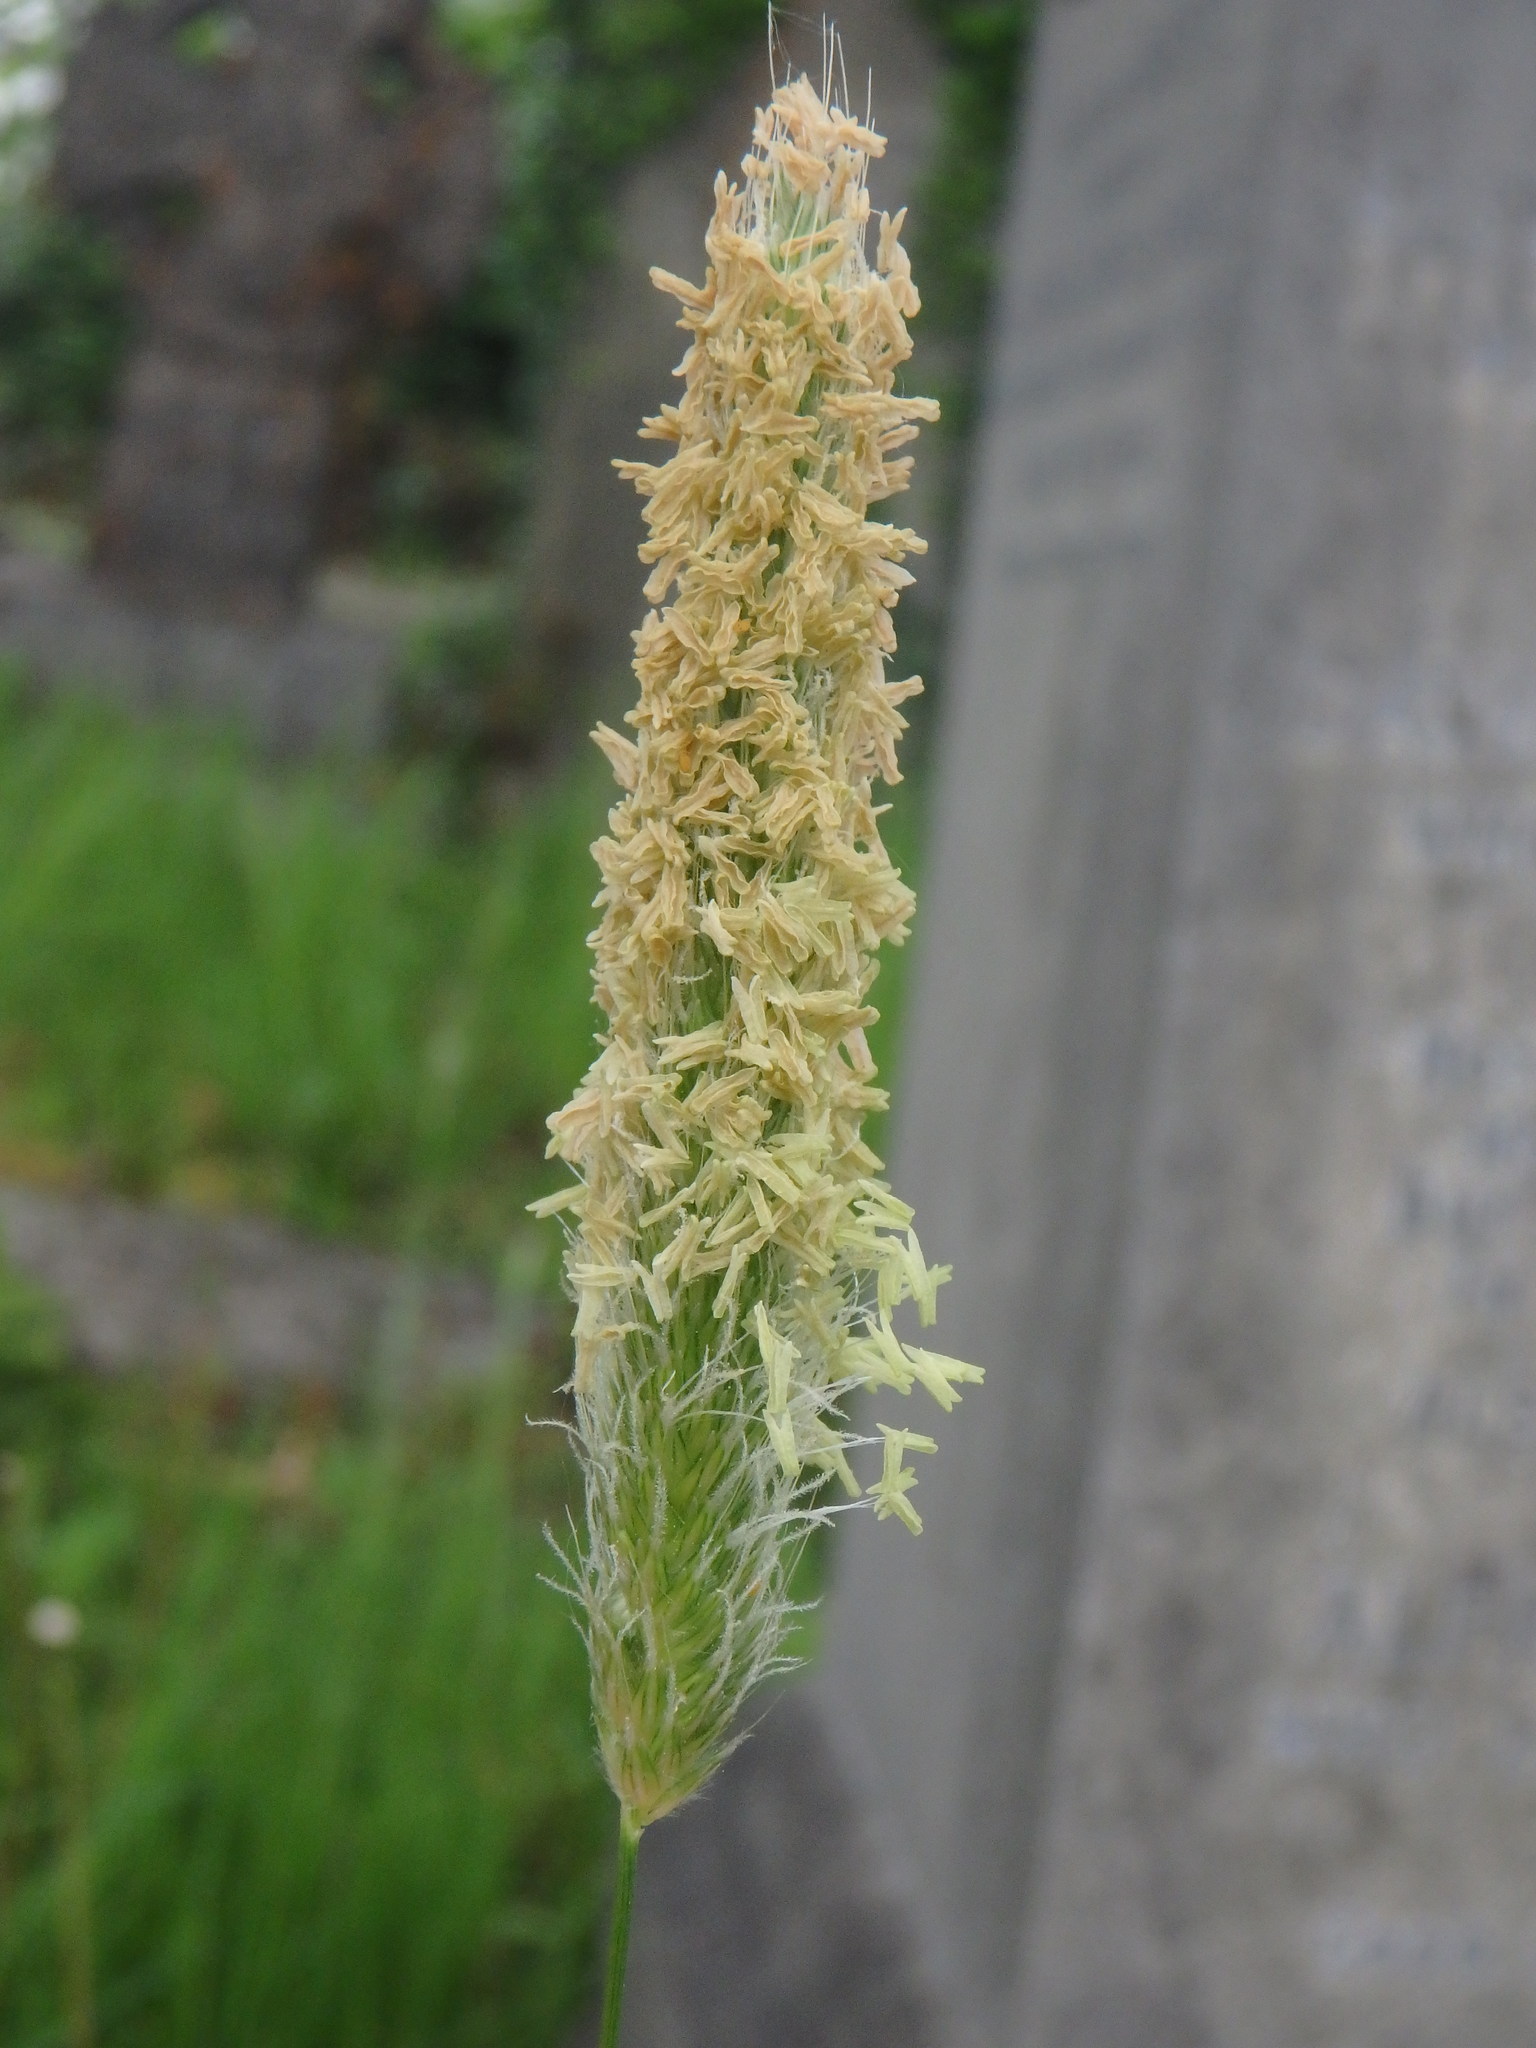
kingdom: Plantae
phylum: Tracheophyta
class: Liliopsida
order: Poales
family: Poaceae
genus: Alopecurus
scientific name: Alopecurus pratensis
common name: Meadow foxtail
